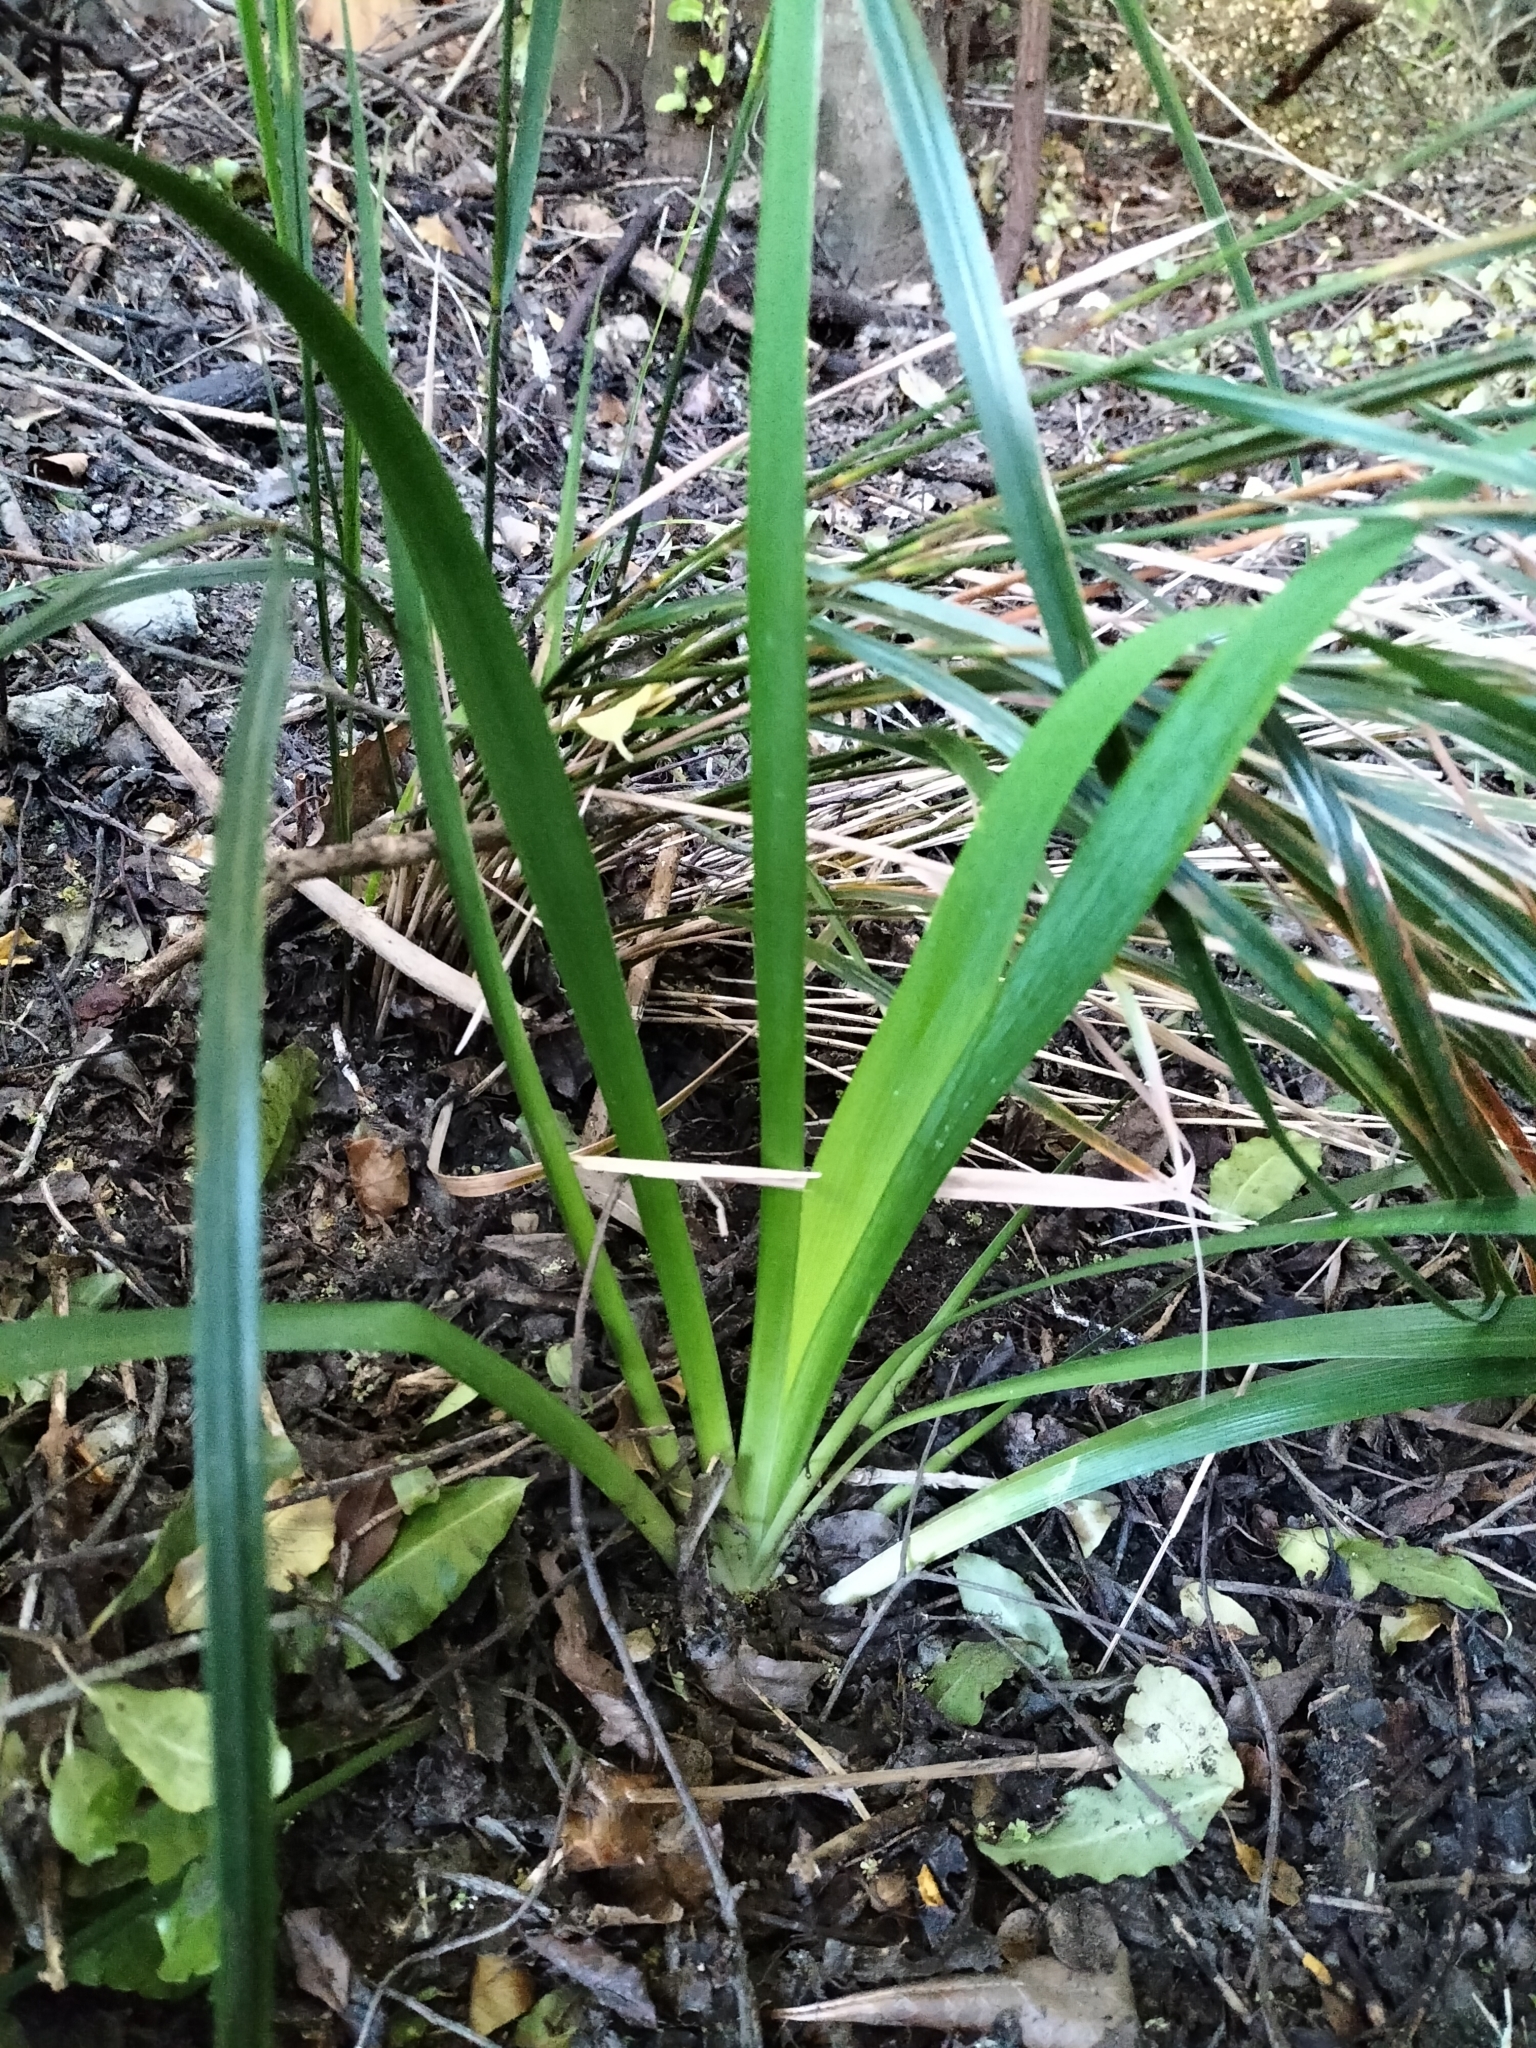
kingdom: Plantae
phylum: Tracheophyta
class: Liliopsida
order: Asparagales
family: Iridaceae
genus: Iris
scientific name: Iris foetidissima
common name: Stinking iris
